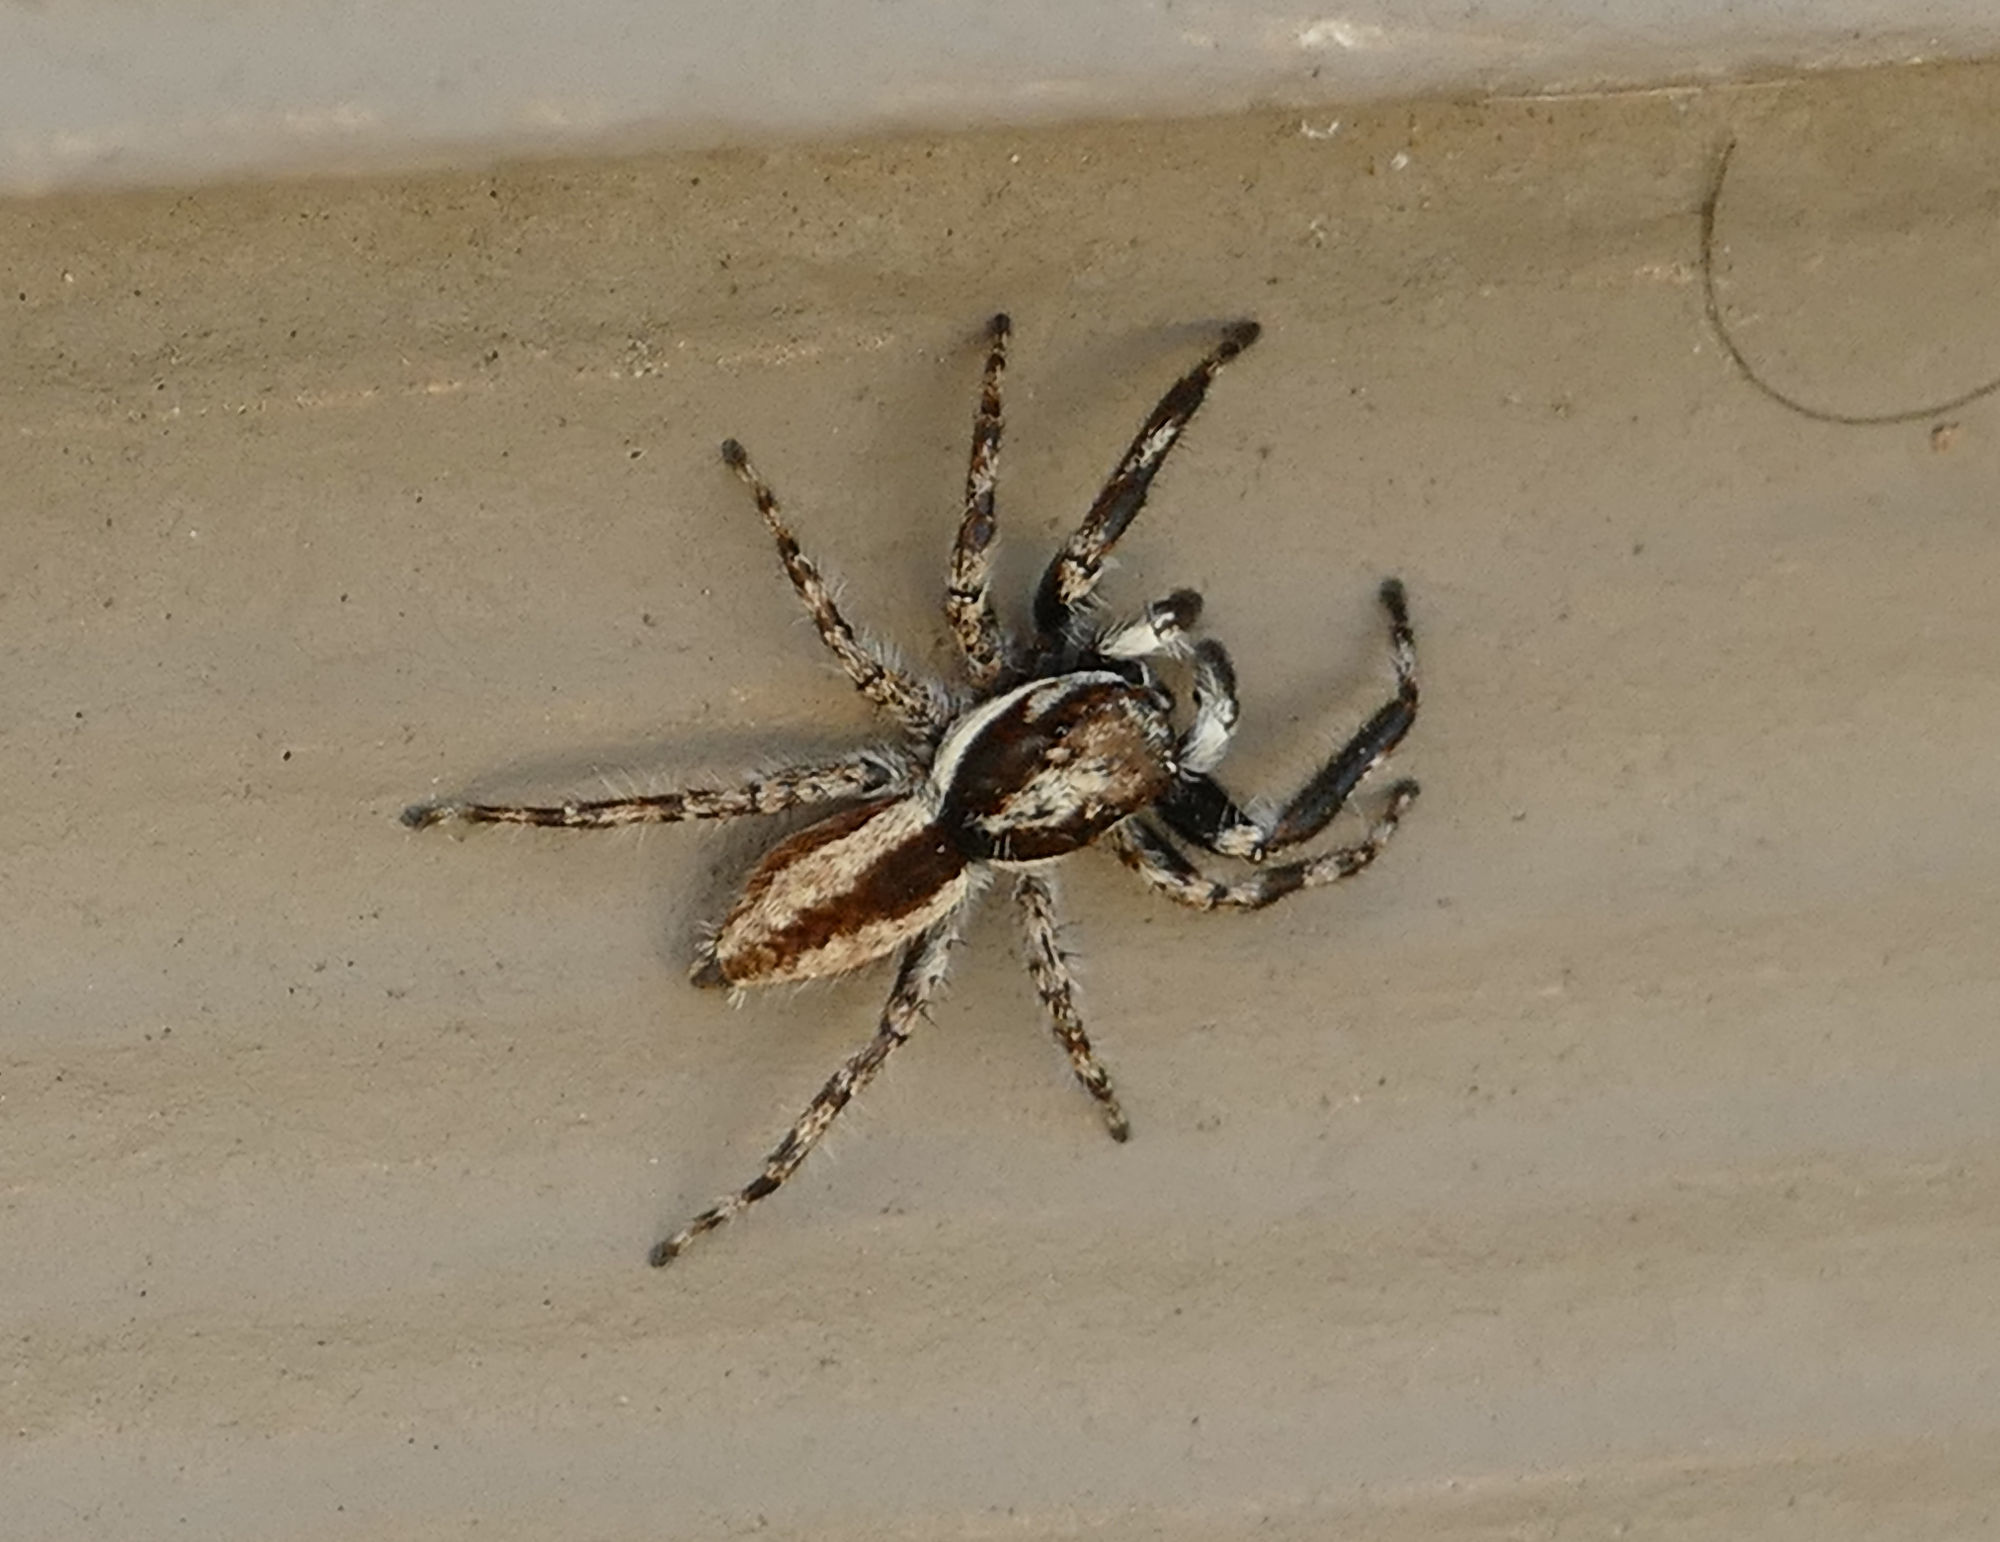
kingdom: Animalia
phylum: Arthropoda
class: Arachnida
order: Araneae
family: Salticidae
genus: Menemerus
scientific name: Menemerus bivittatus
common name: Gray wall jumper
